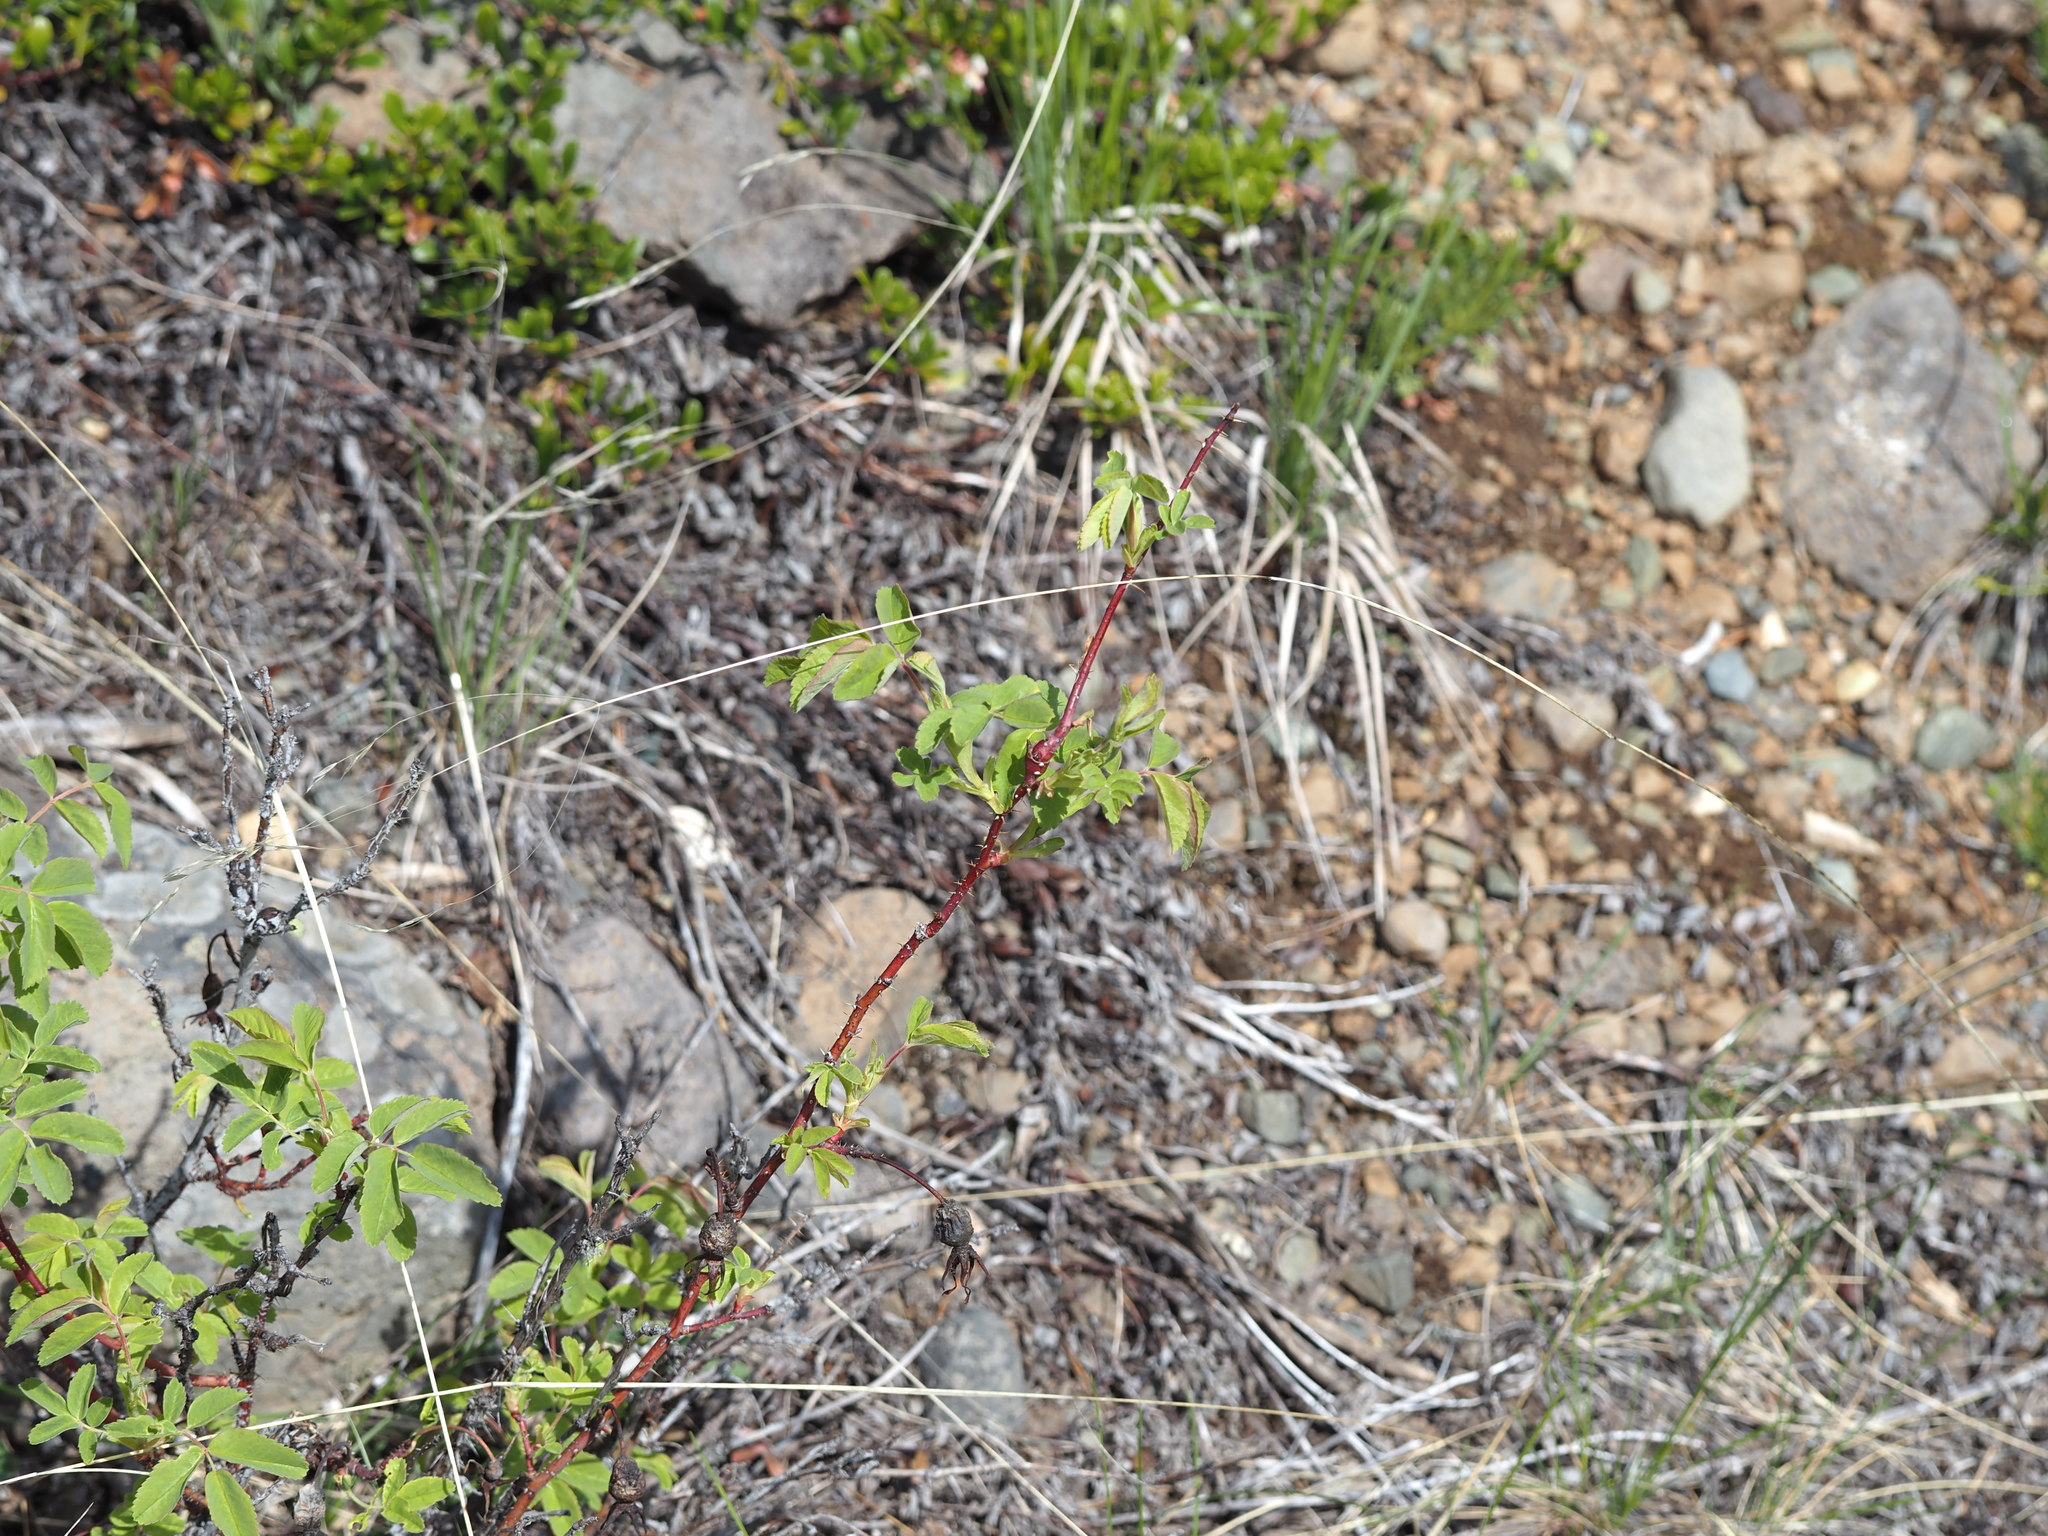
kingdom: Animalia
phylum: Arthropoda
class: Insecta
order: Hymenoptera
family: Cynipidae
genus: Diplolepis
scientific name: Diplolepis triforma
